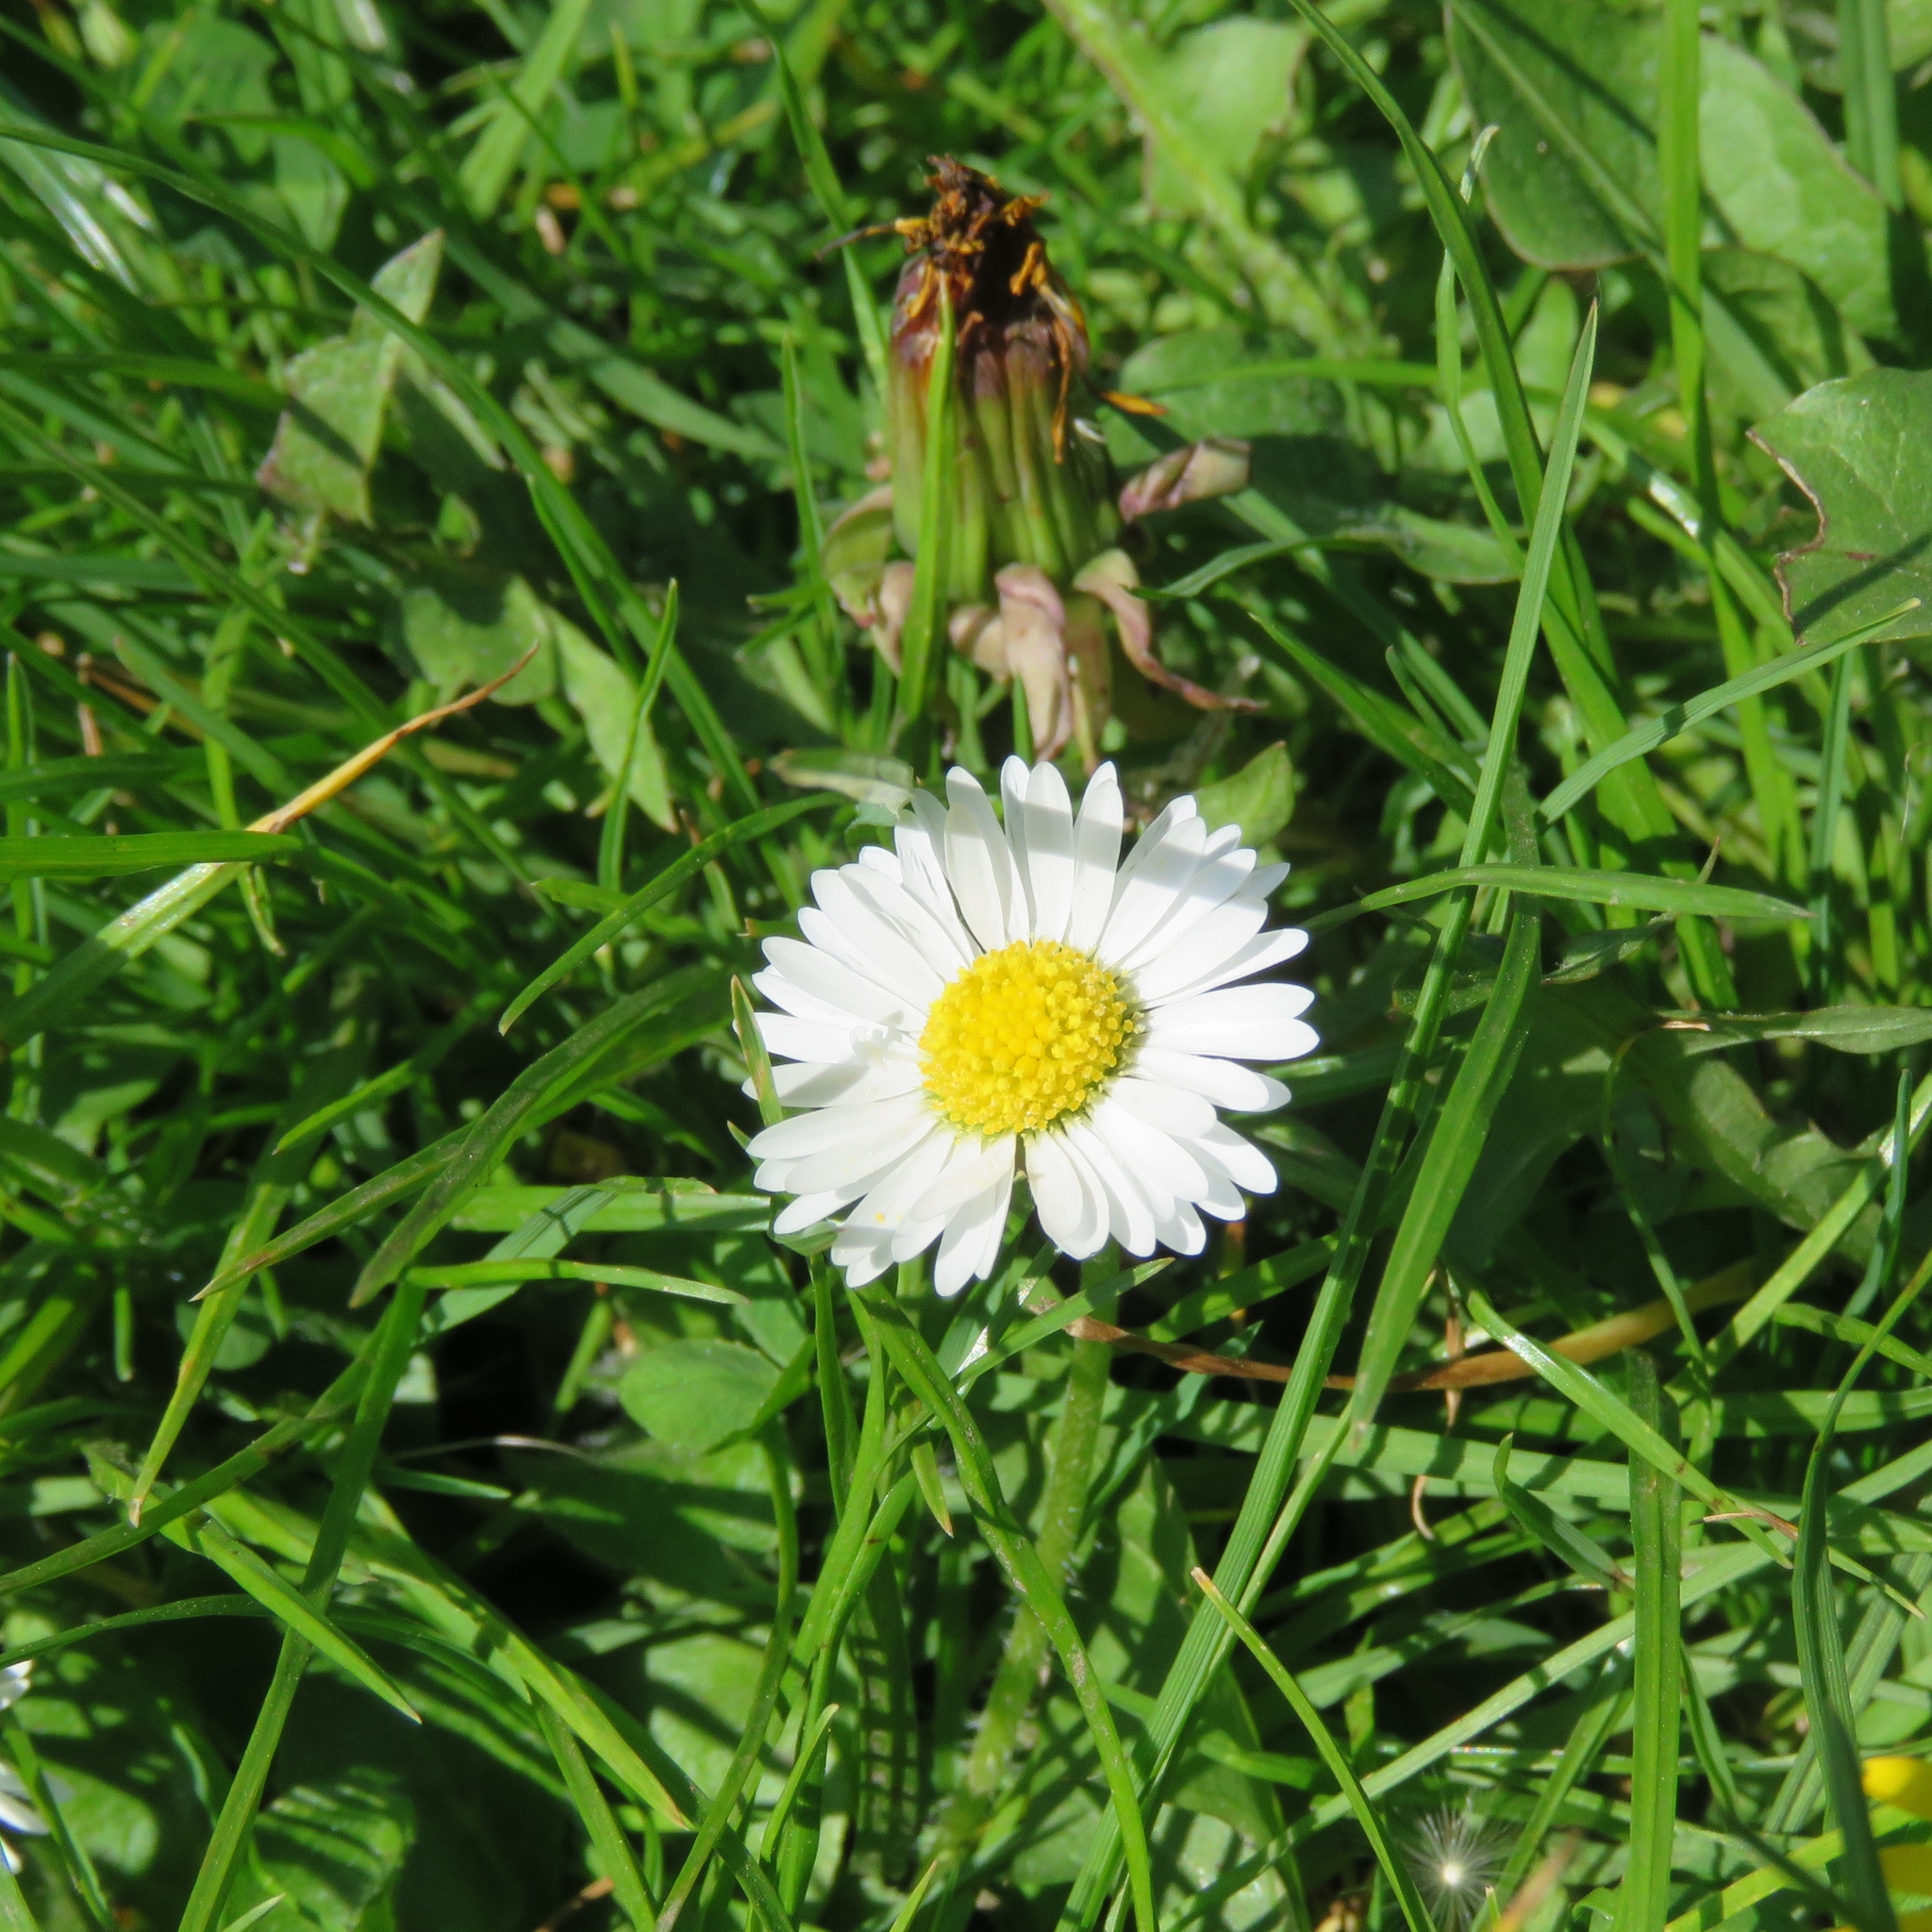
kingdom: Plantae
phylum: Tracheophyta
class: Magnoliopsida
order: Asterales
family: Asteraceae
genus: Bellis
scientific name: Bellis perennis
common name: Lawndaisy
